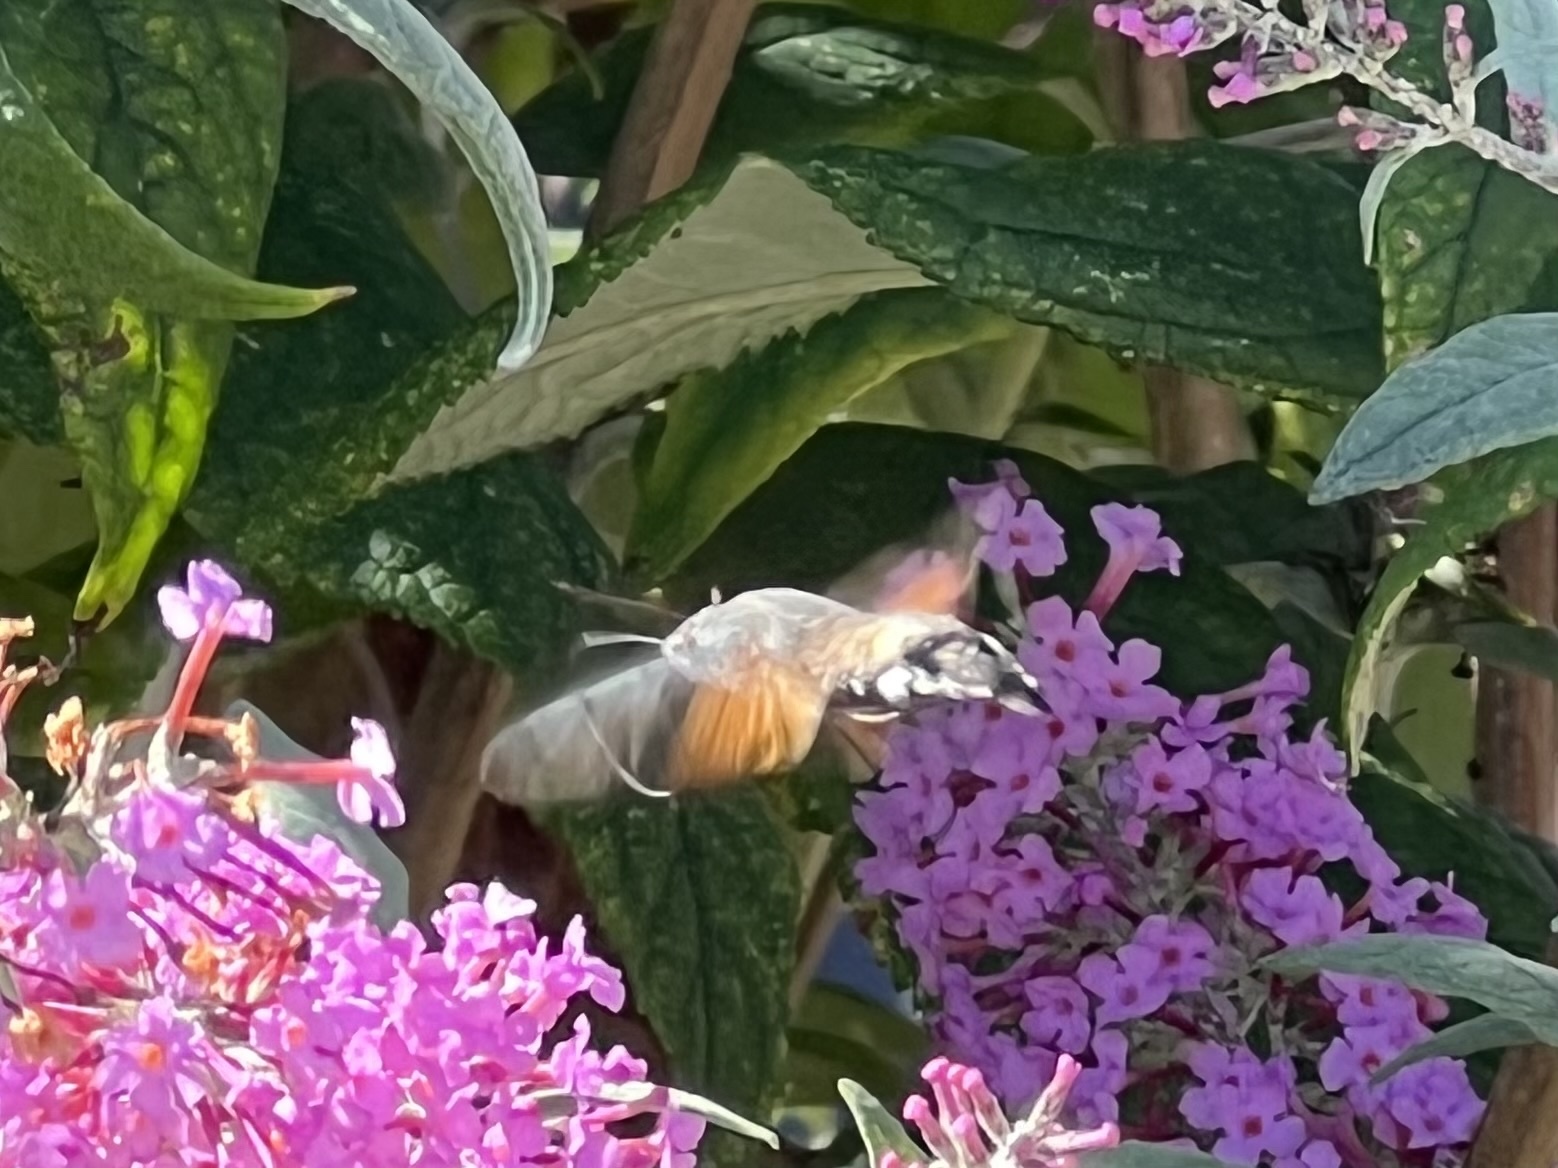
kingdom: Animalia
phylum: Arthropoda
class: Insecta
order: Lepidoptera
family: Sphingidae
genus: Macroglossum
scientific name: Macroglossum stellatarum
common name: Humming-bird hawk-moth
